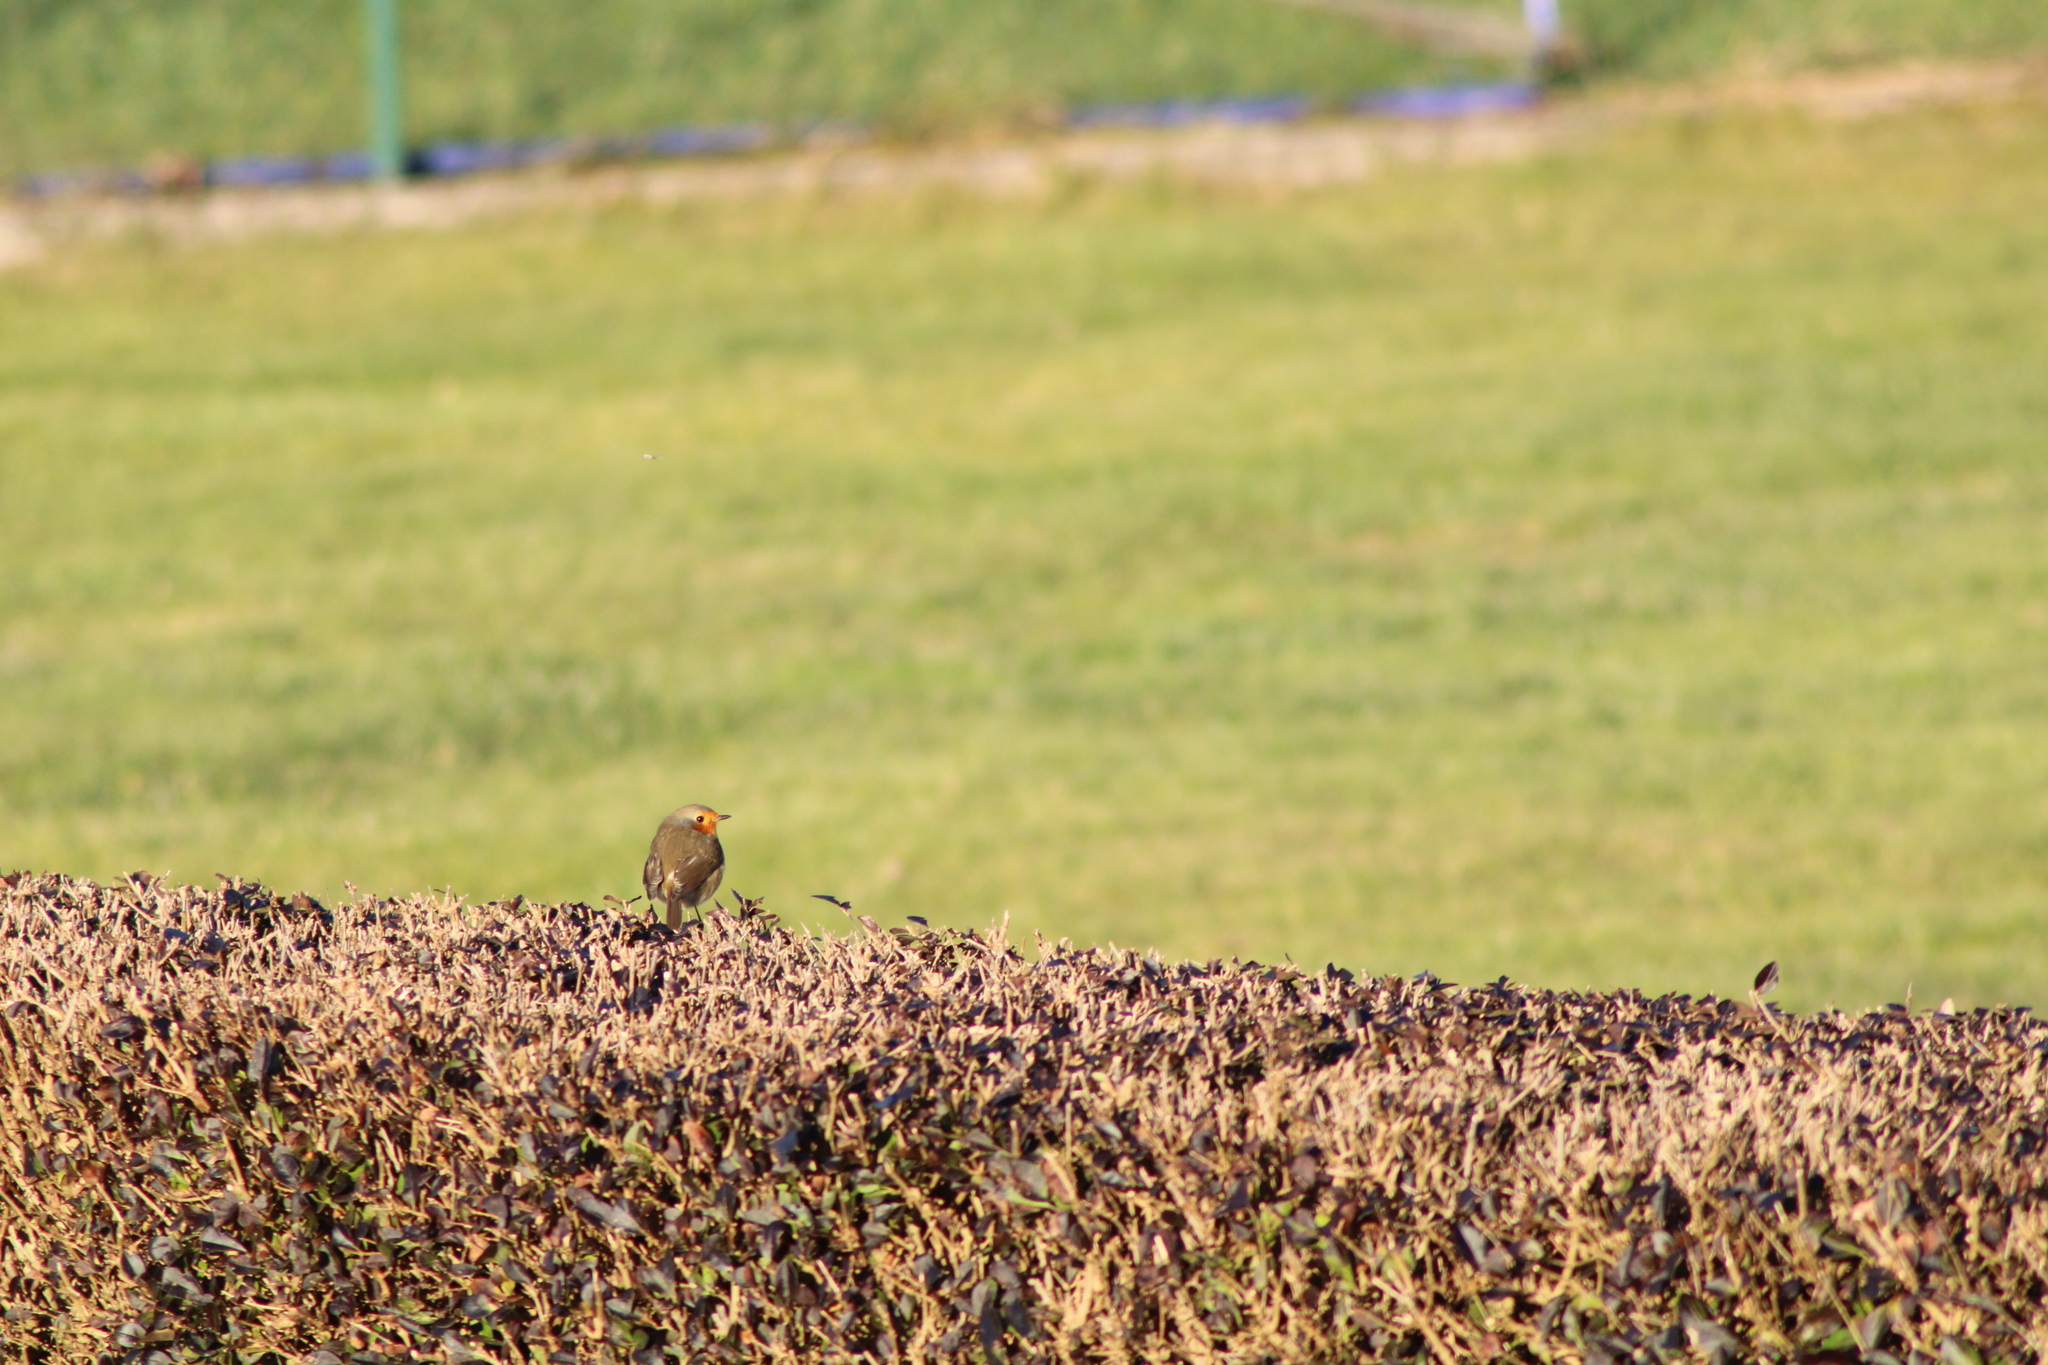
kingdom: Animalia
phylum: Chordata
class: Aves
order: Passeriformes
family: Muscicapidae
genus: Erithacus
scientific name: Erithacus rubecula
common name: European robin
